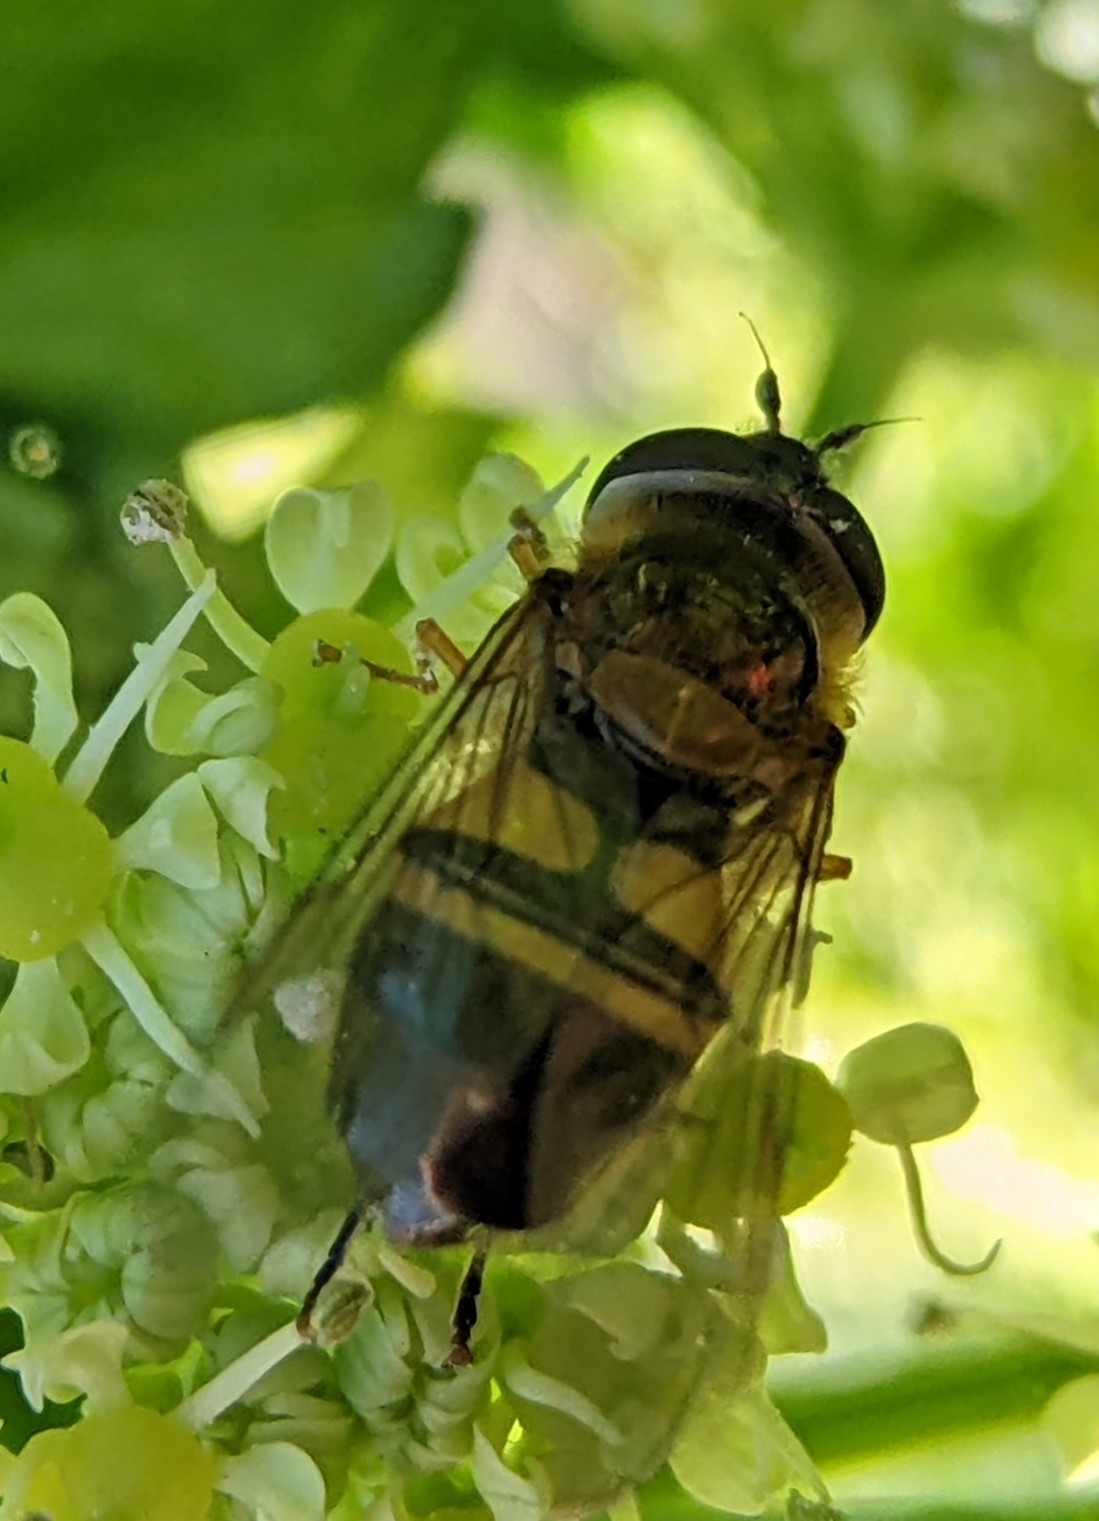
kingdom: Animalia
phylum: Arthropoda
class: Insecta
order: Diptera
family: Syrphidae
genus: Epistrophe
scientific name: Epistrophe eligans
